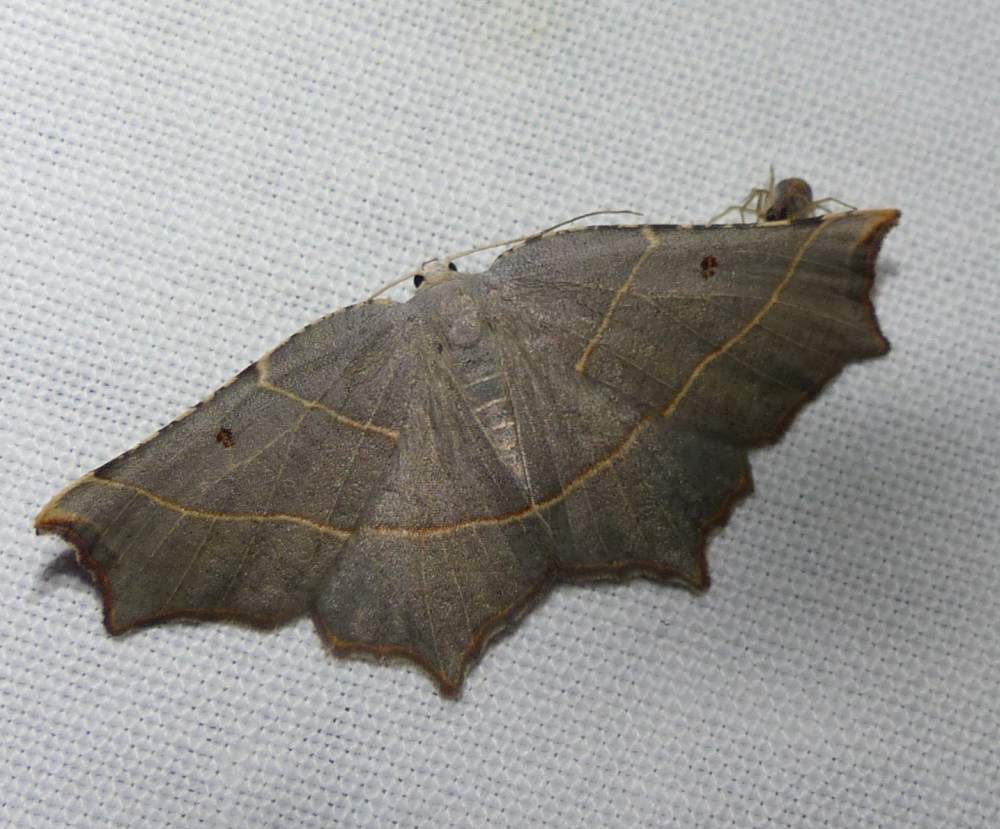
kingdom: Animalia
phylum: Arthropoda
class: Insecta
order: Lepidoptera
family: Geometridae
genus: Metanema
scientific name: Metanema inatomaria
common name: Pale metanema
